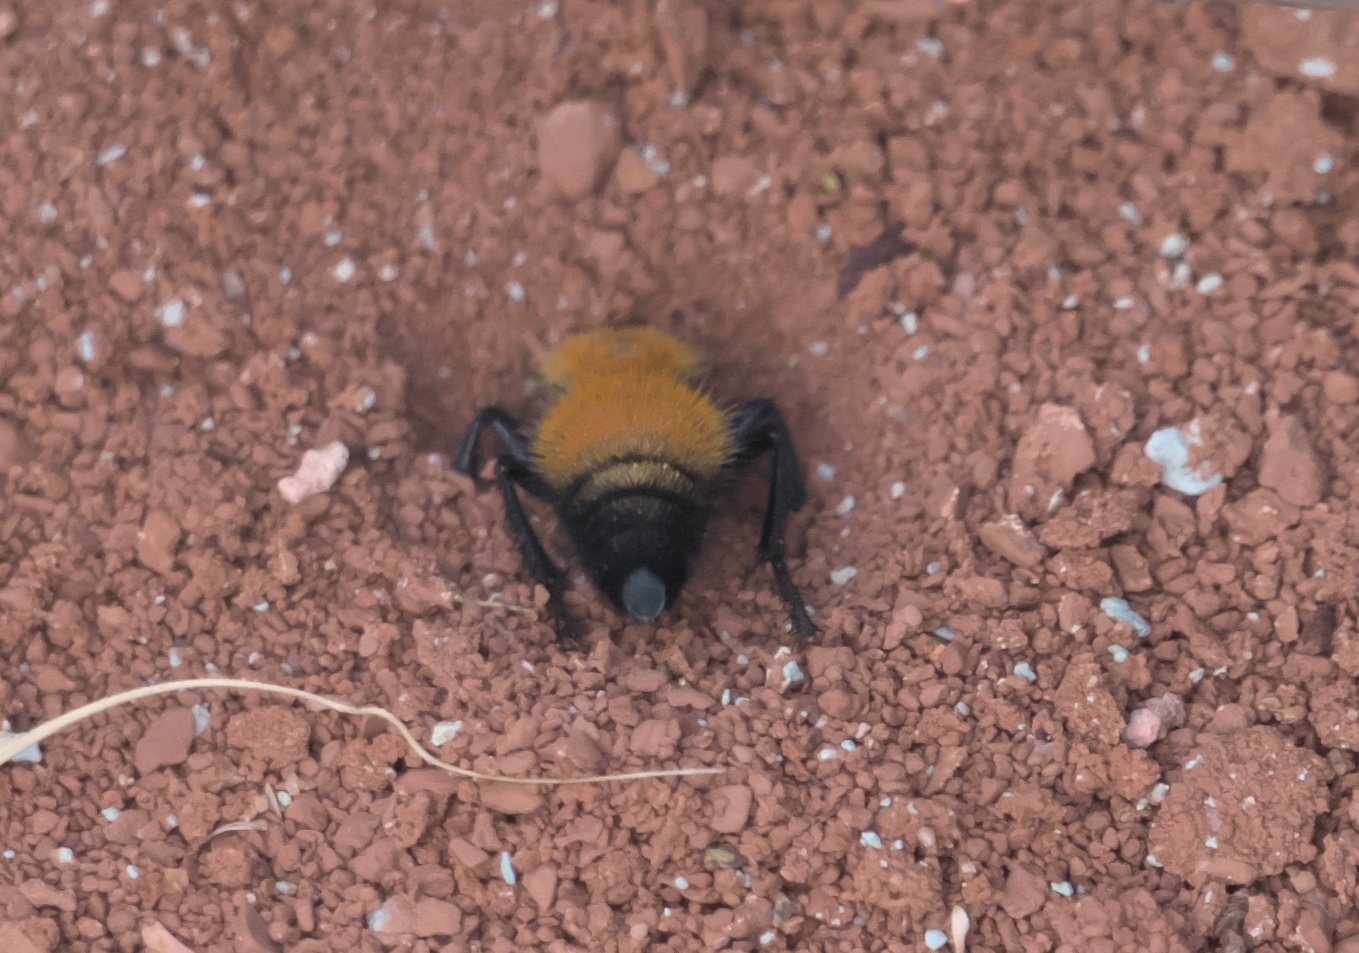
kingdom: Animalia
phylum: Arthropoda
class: Insecta
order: Hymenoptera
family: Mutillidae
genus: Dasymutilla
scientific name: Dasymutilla
